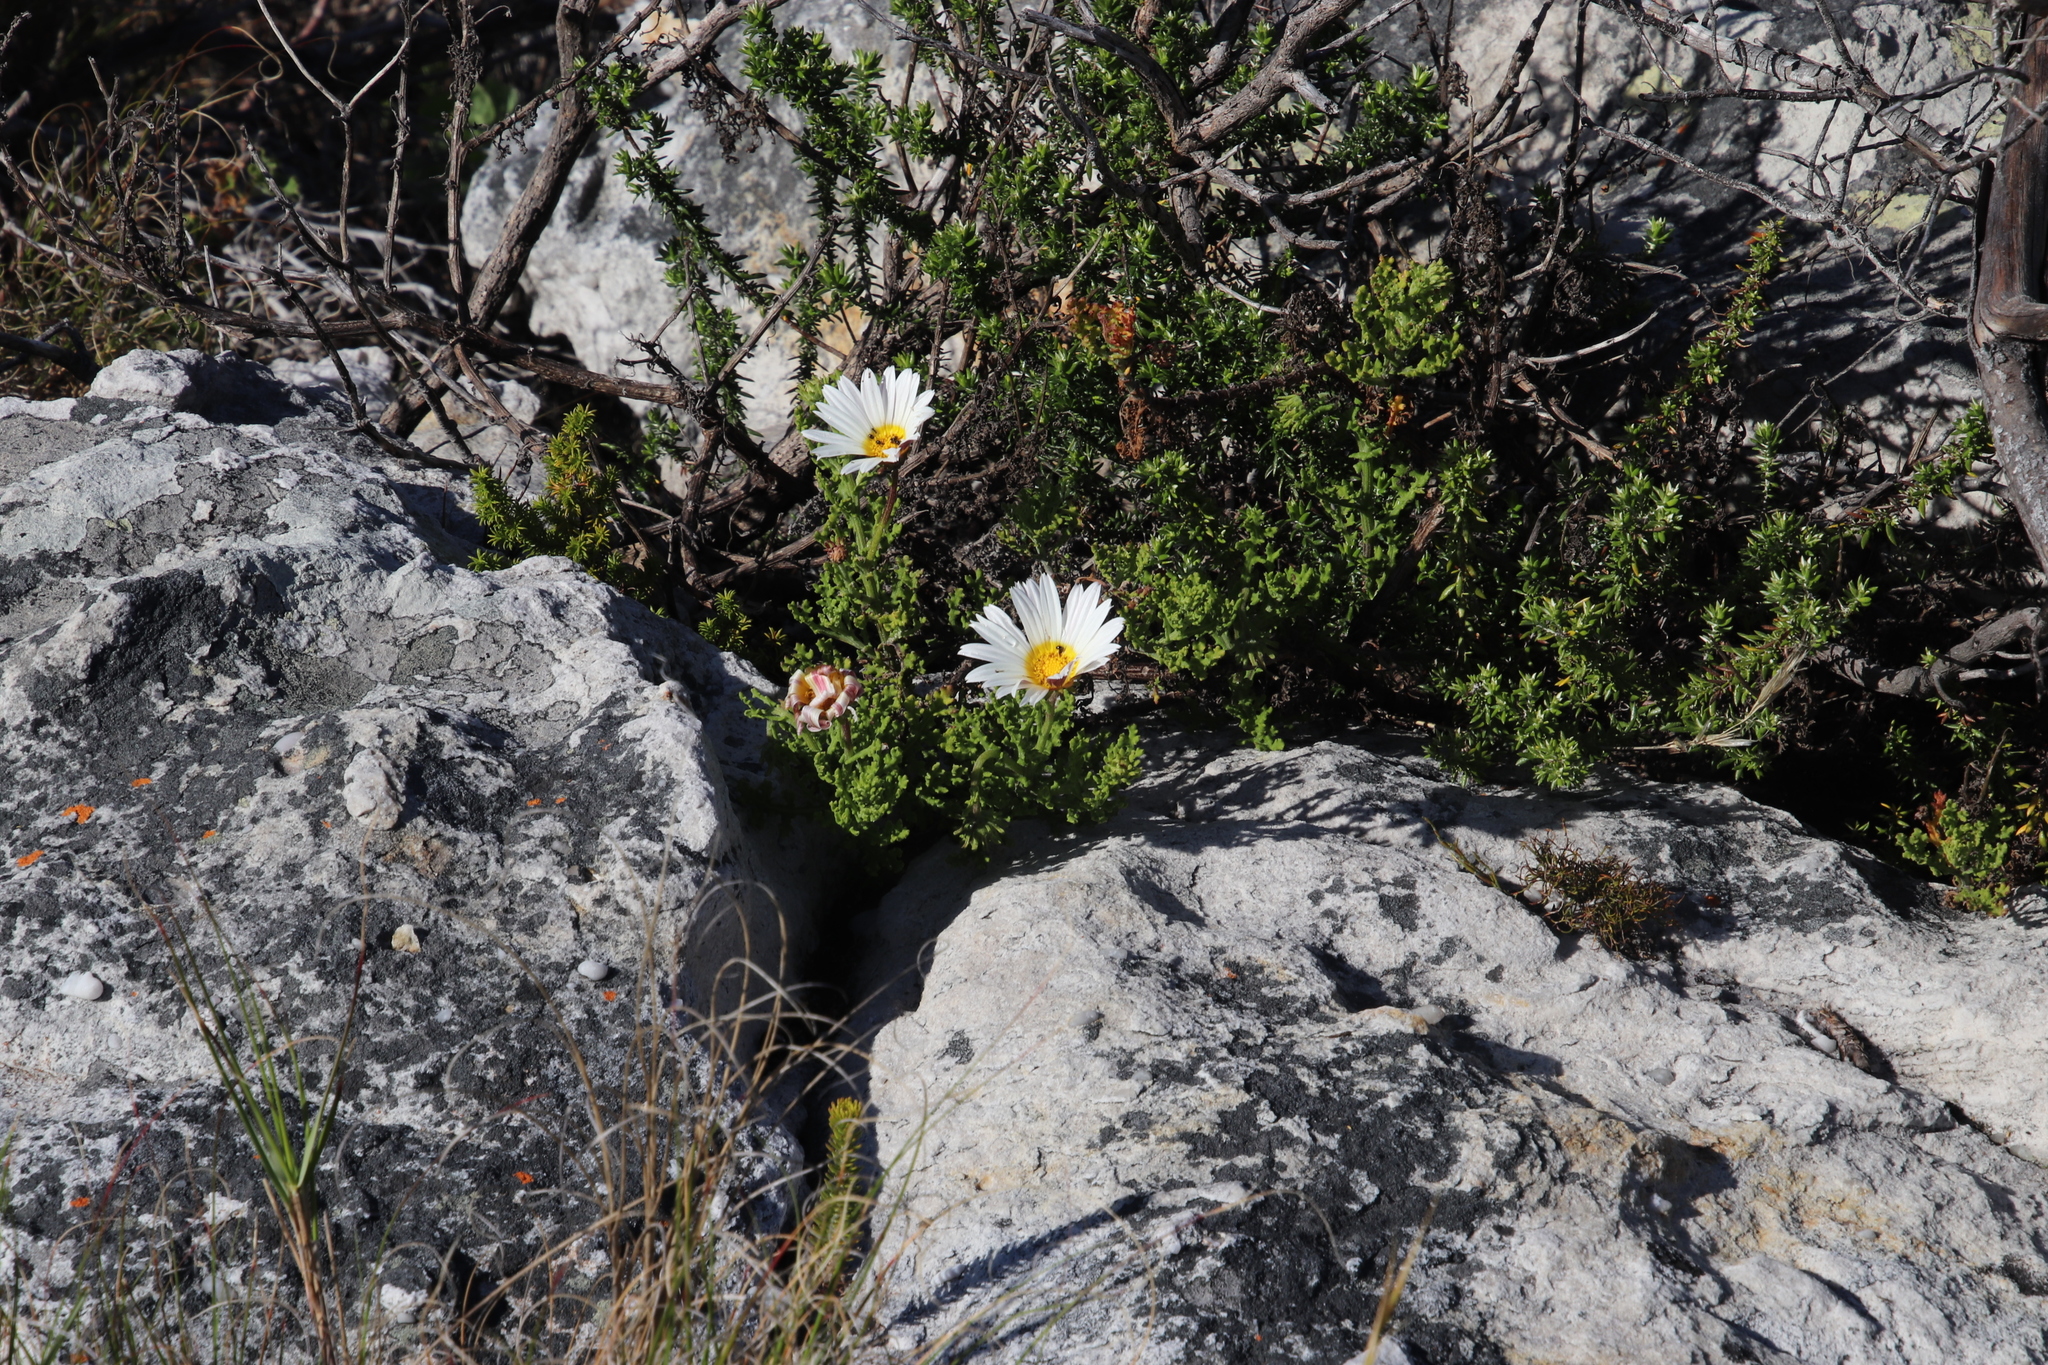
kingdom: Plantae
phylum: Tracheophyta
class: Magnoliopsida
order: Asterales
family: Asteraceae
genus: Arctotis
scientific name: Arctotis aspera
